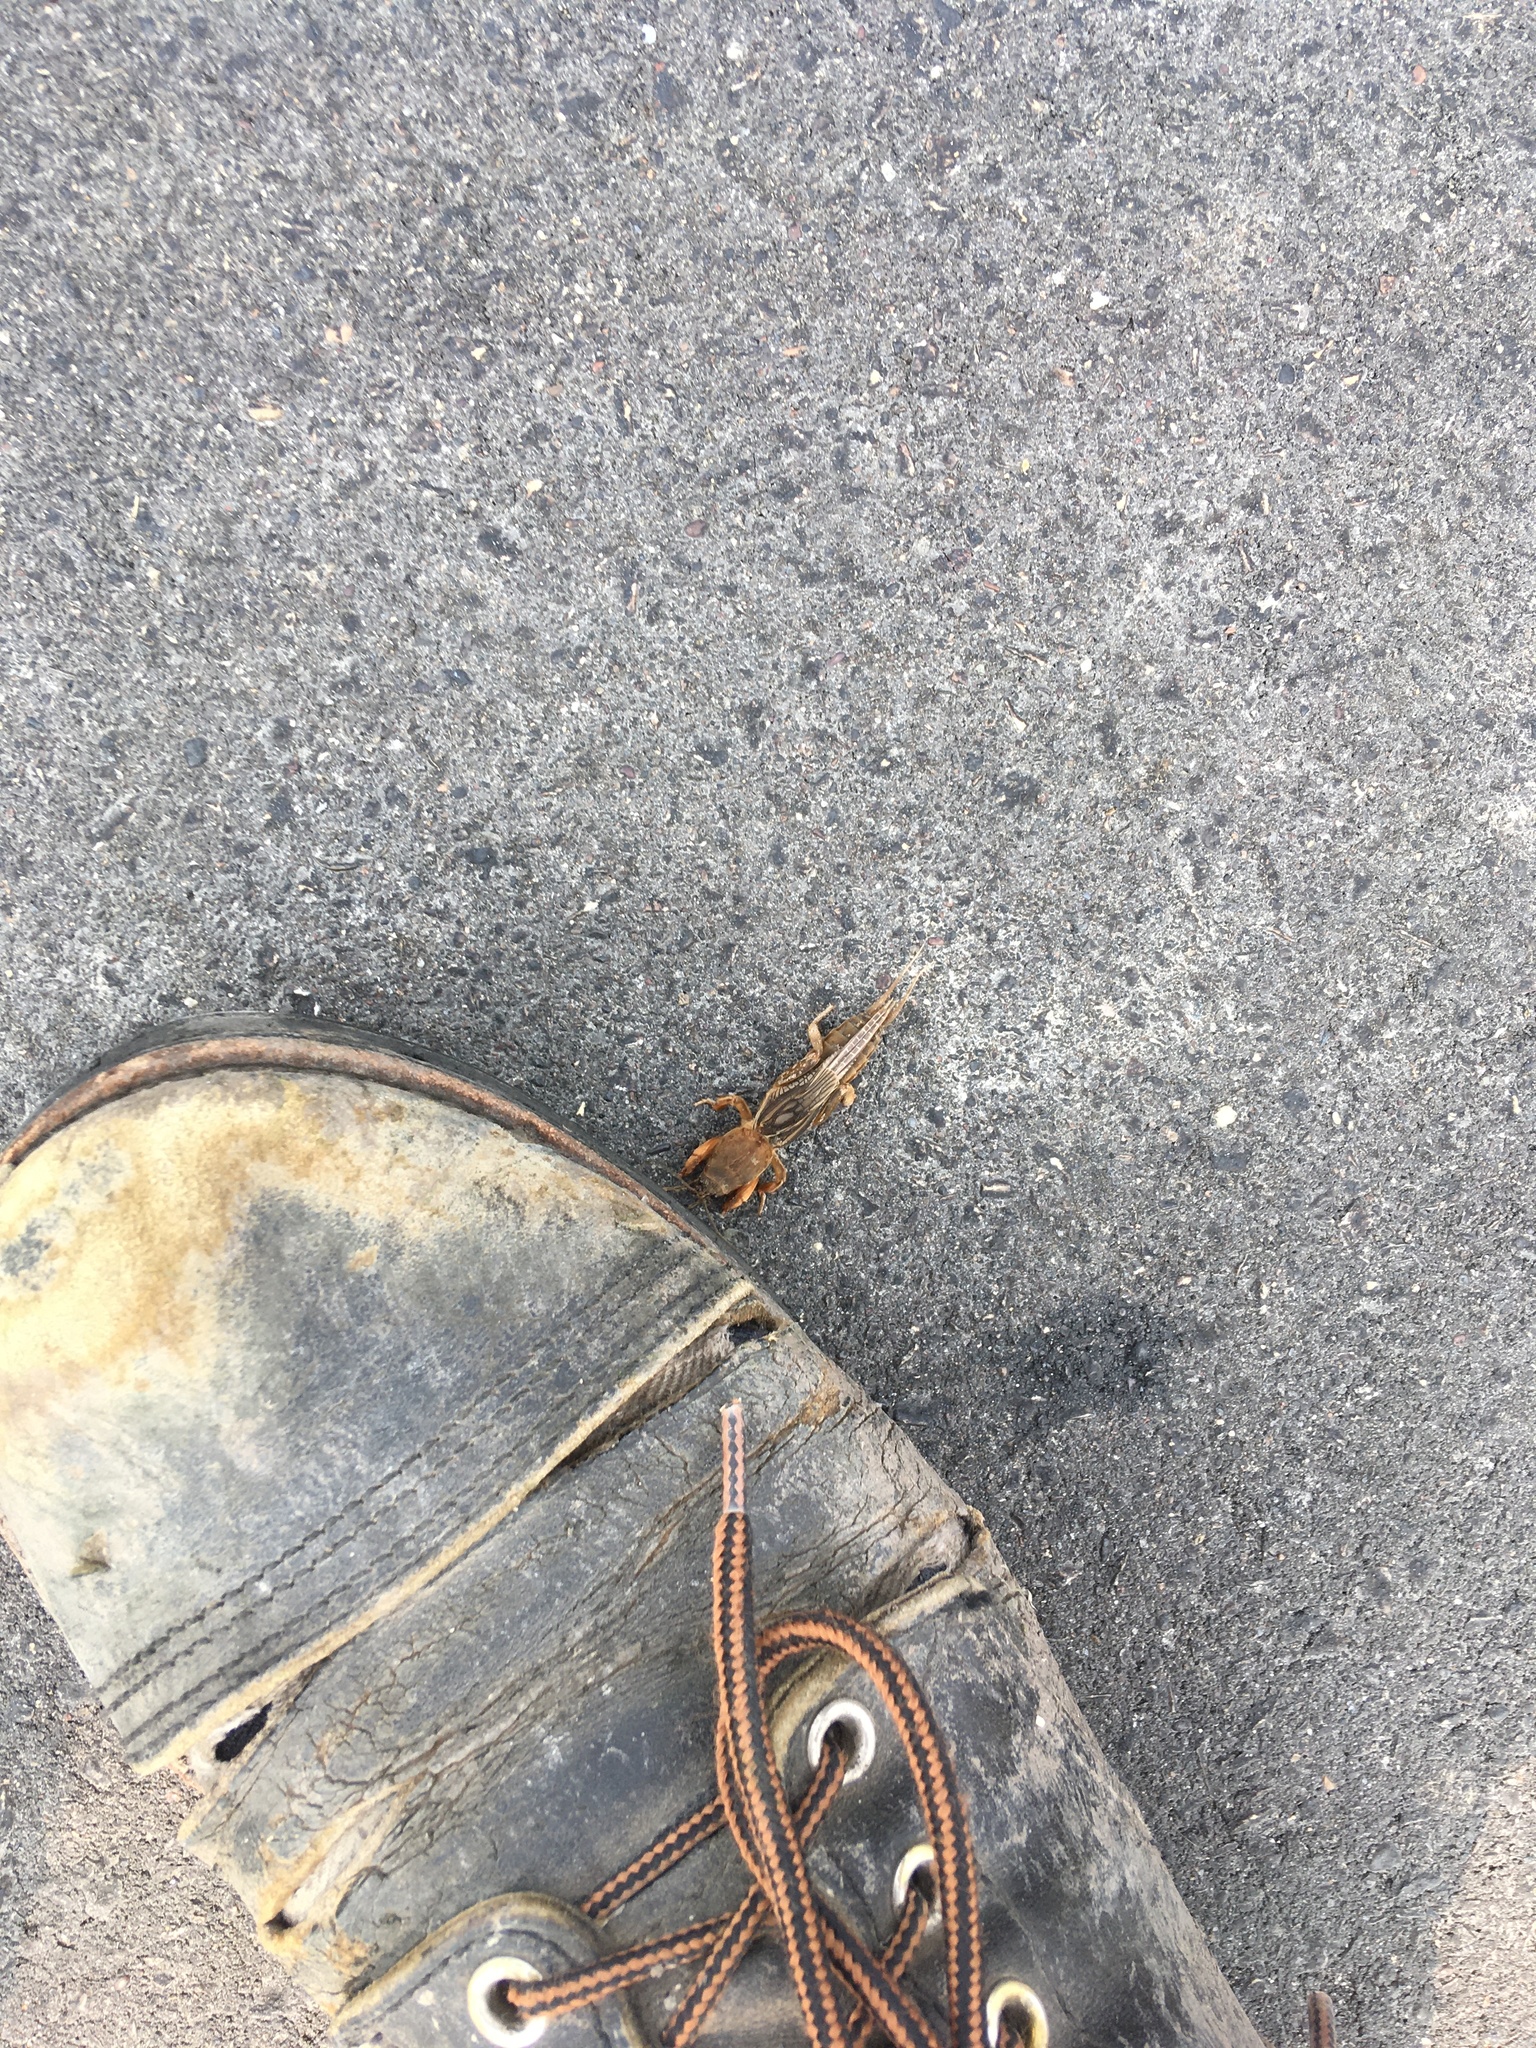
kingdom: Animalia
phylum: Arthropoda
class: Insecta
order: Orthoptera
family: Gryllotalpidae
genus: Neocurtilla
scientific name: Neocurtilla hexadactyla
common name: Northern mole cricket
